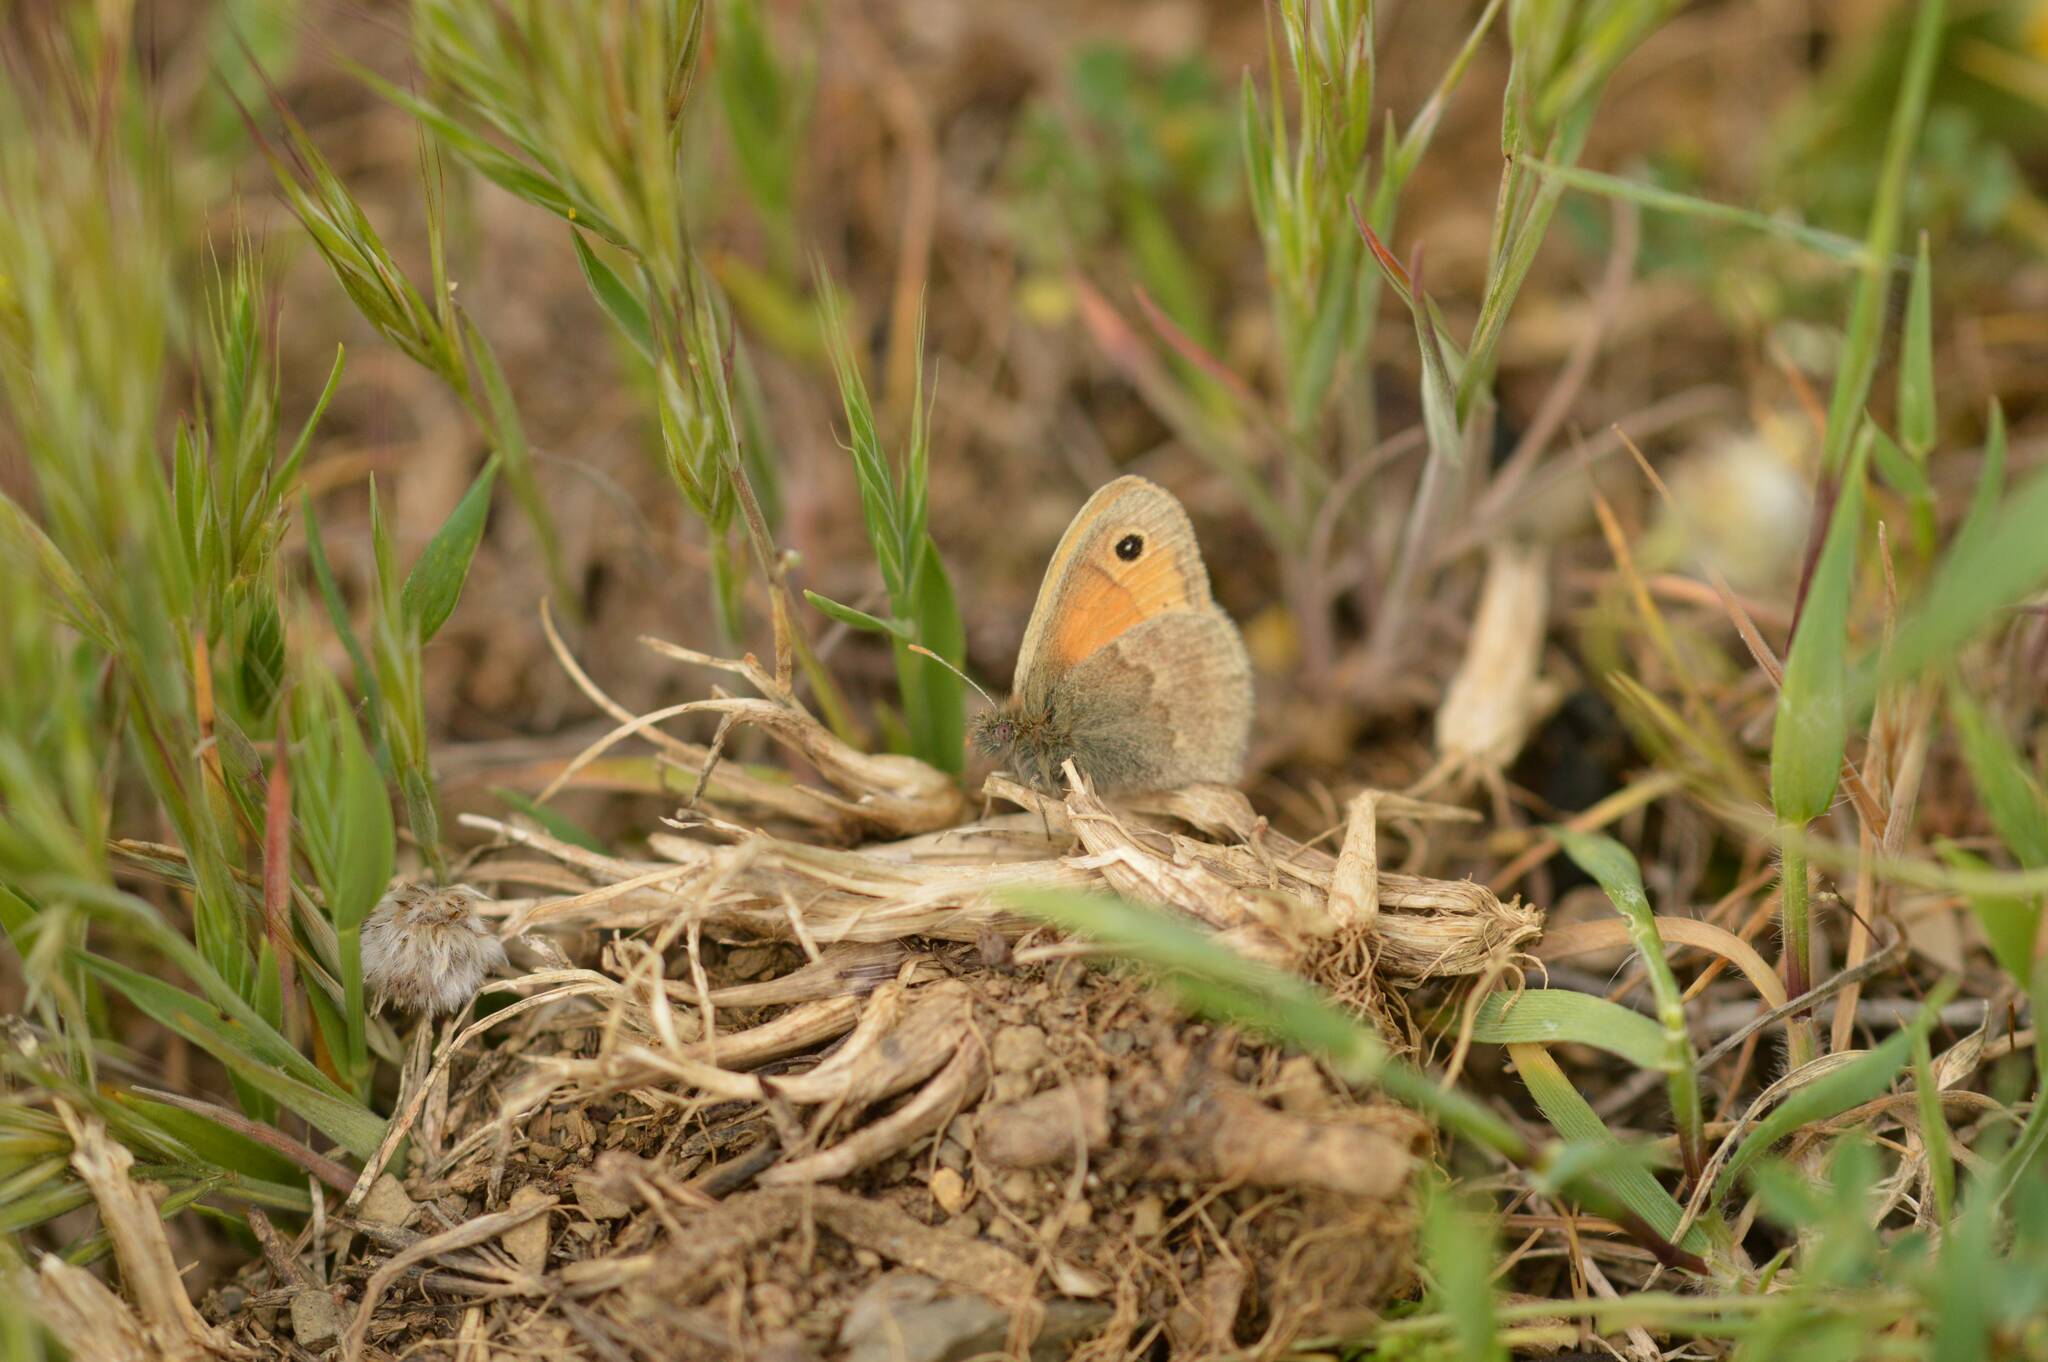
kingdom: Animalia
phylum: Arthropoda
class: Insecta
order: Lepidoptera
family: Nymphalidae
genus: Coenonympha
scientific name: Coenonympha pamphilus
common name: Small heath
